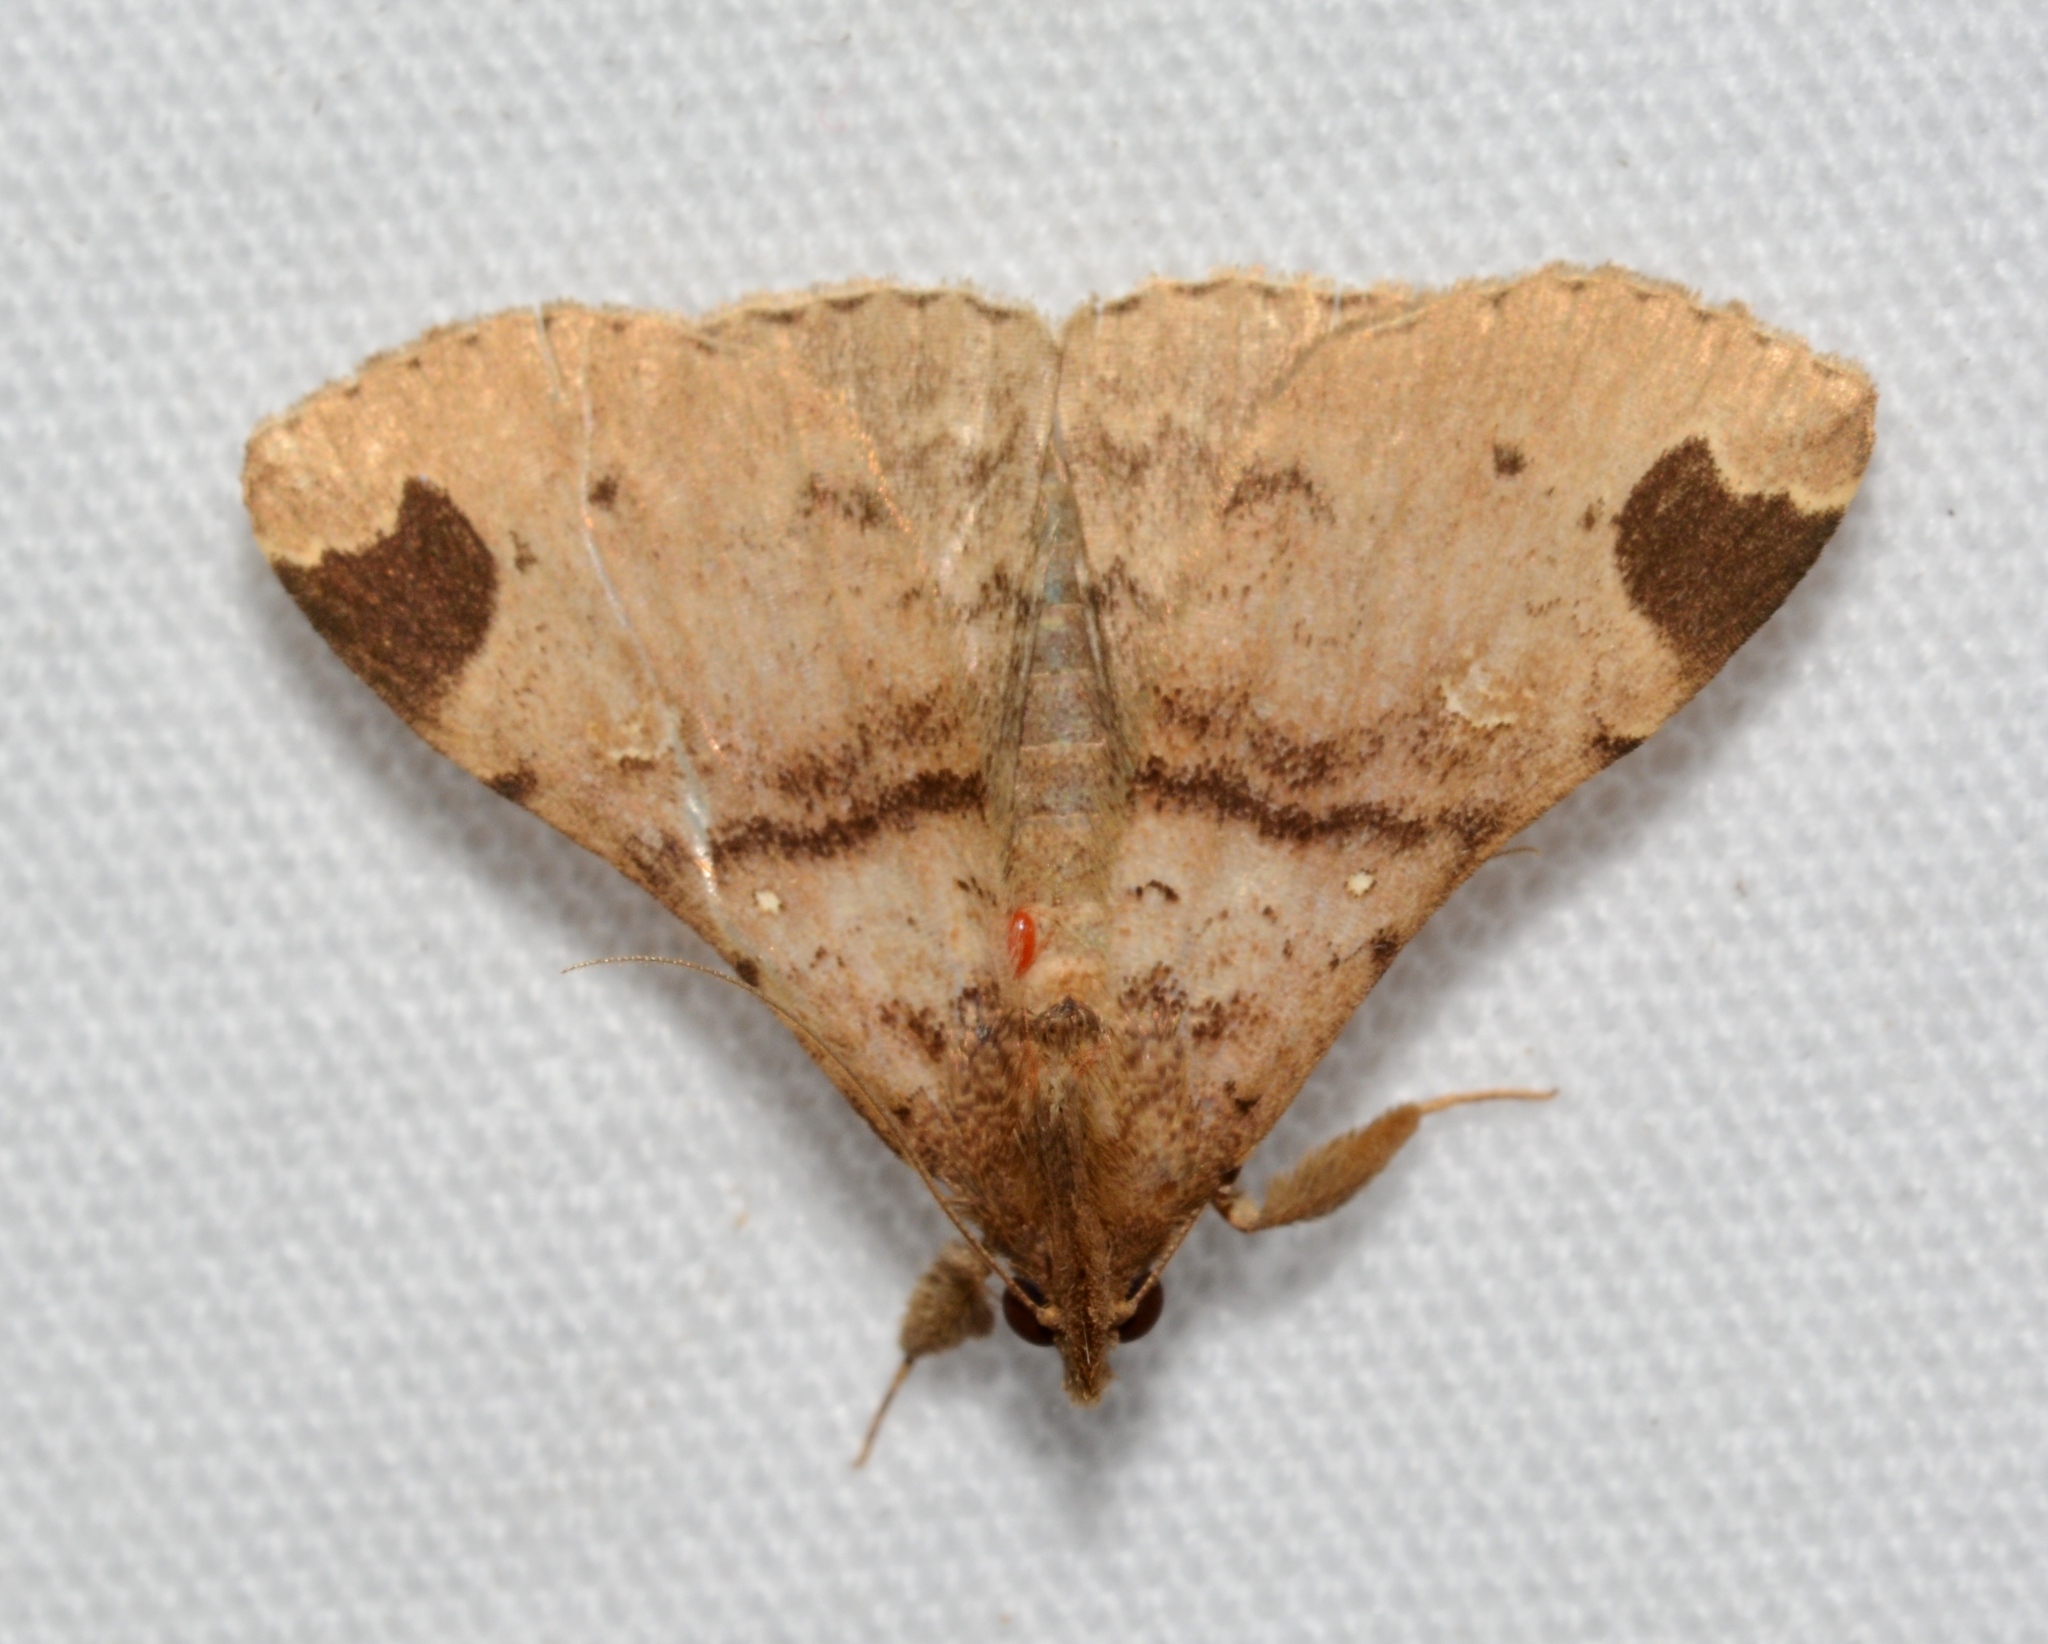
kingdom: Animalia
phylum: Arthropoda
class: Insecta
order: Lepidoptera
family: Erebidae
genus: Rejectaria
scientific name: Rejectaria aratus
